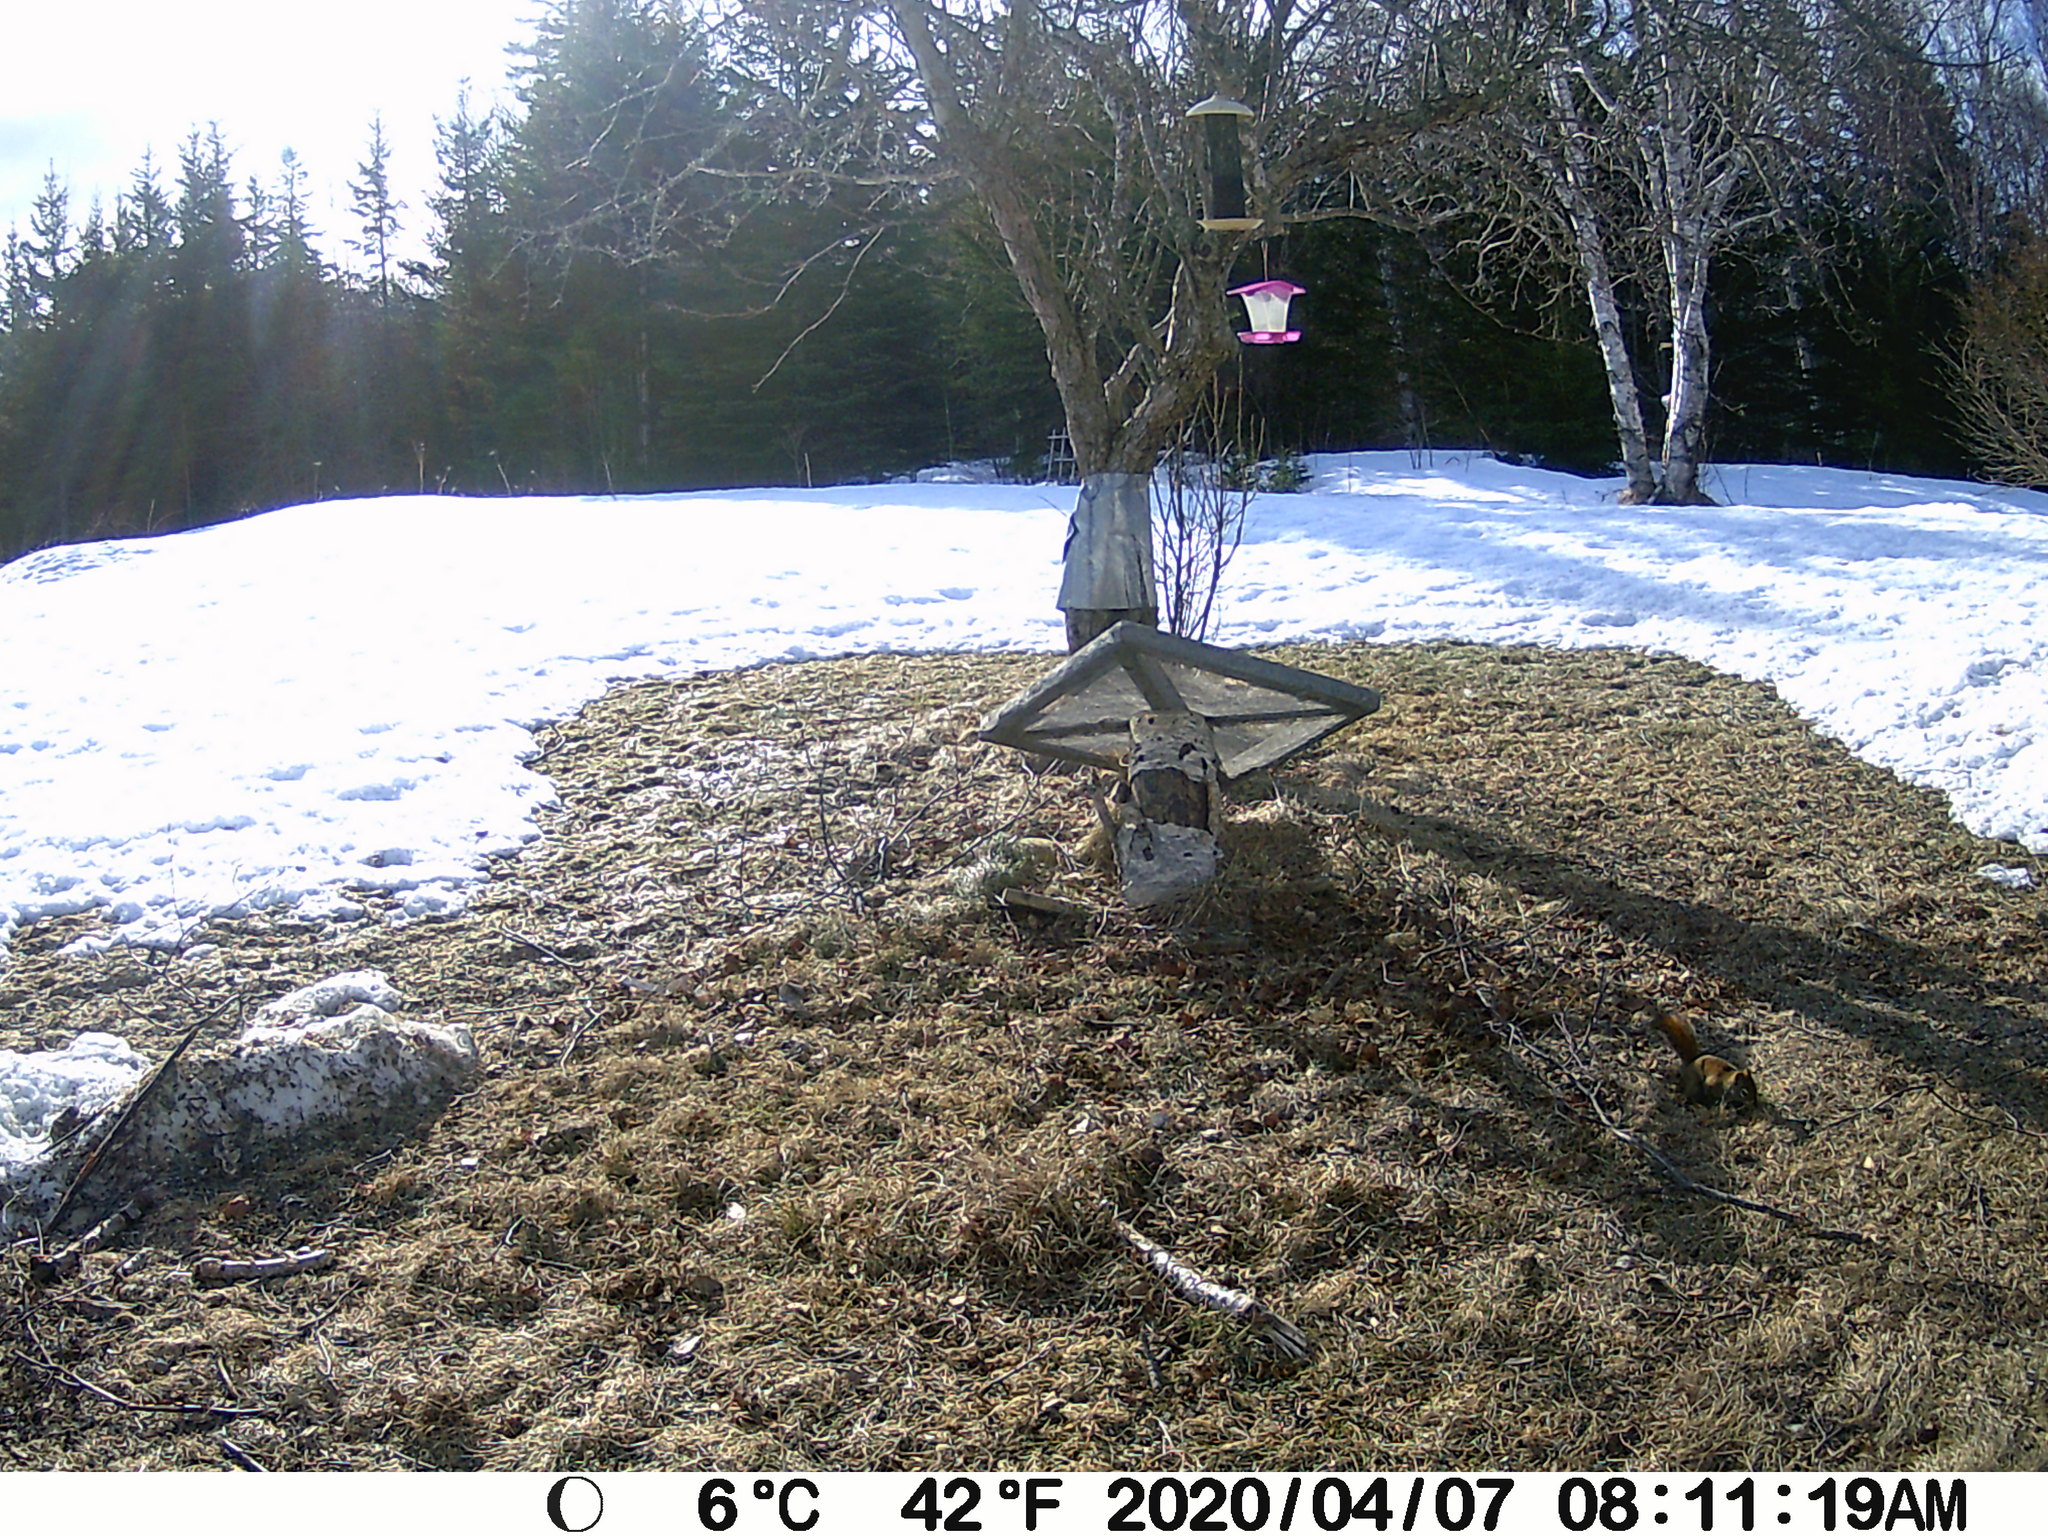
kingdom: Animalia
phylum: Chordata
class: Mammalia
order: Rodentia
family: Sciuridae
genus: Tamiasciurus
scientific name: Tamiasciurus hudsonicus
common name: Red squirrel
